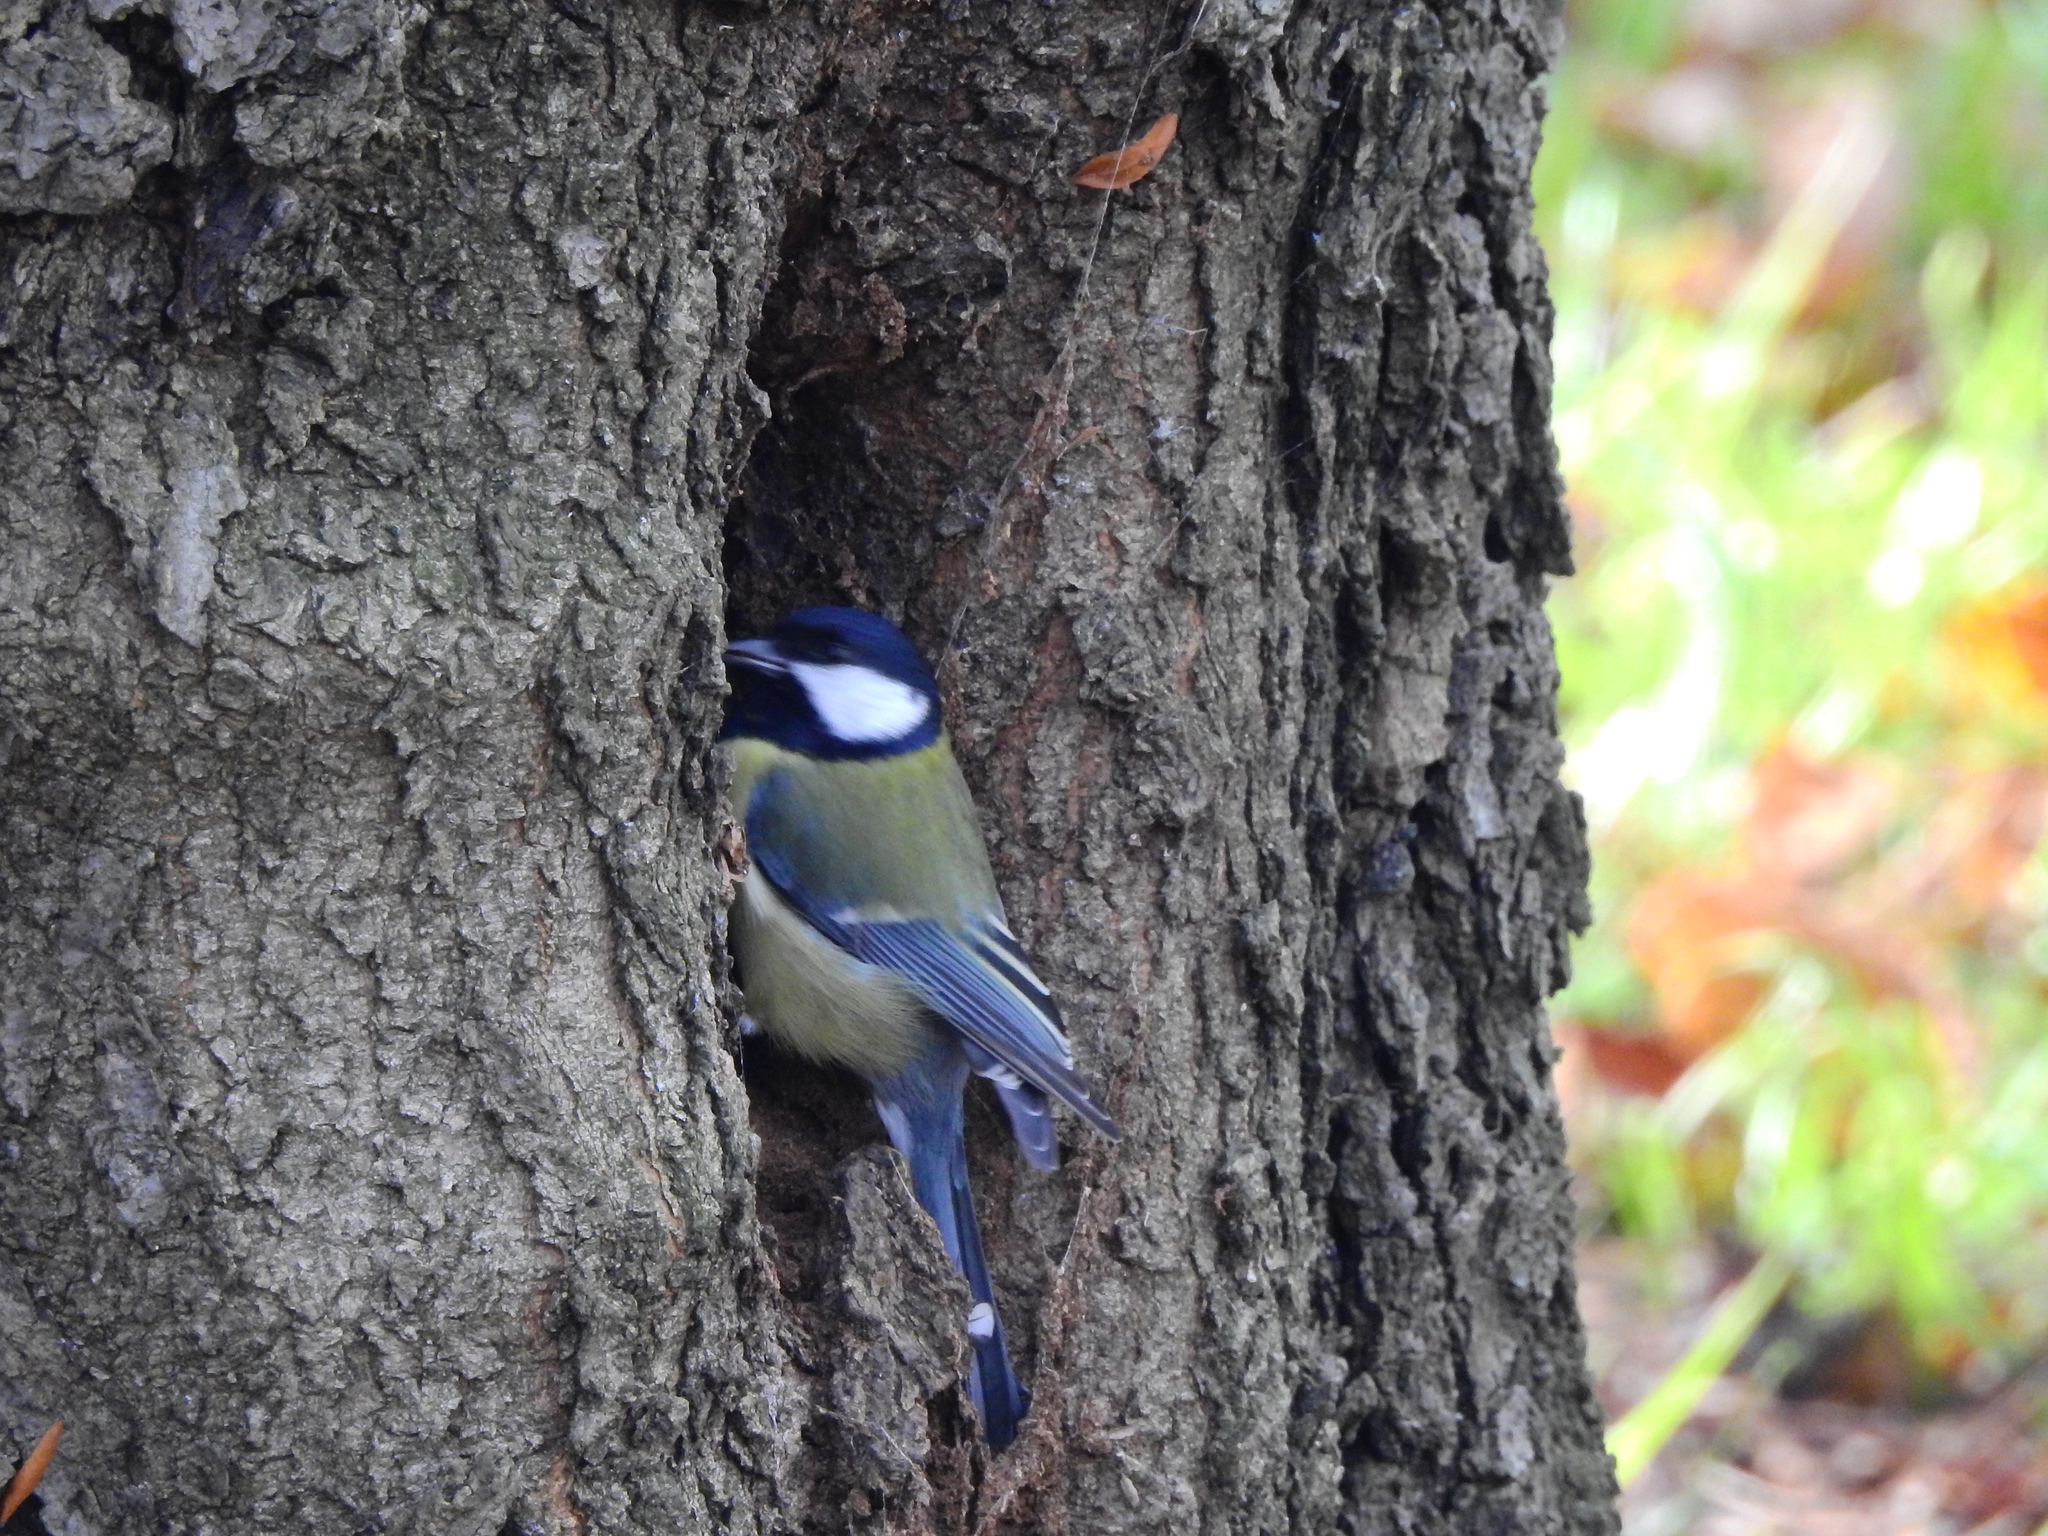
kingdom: Animalia
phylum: Chordata
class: Aves
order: Passeriformes
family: Paridae
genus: Parus
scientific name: Parus major
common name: Great tit
